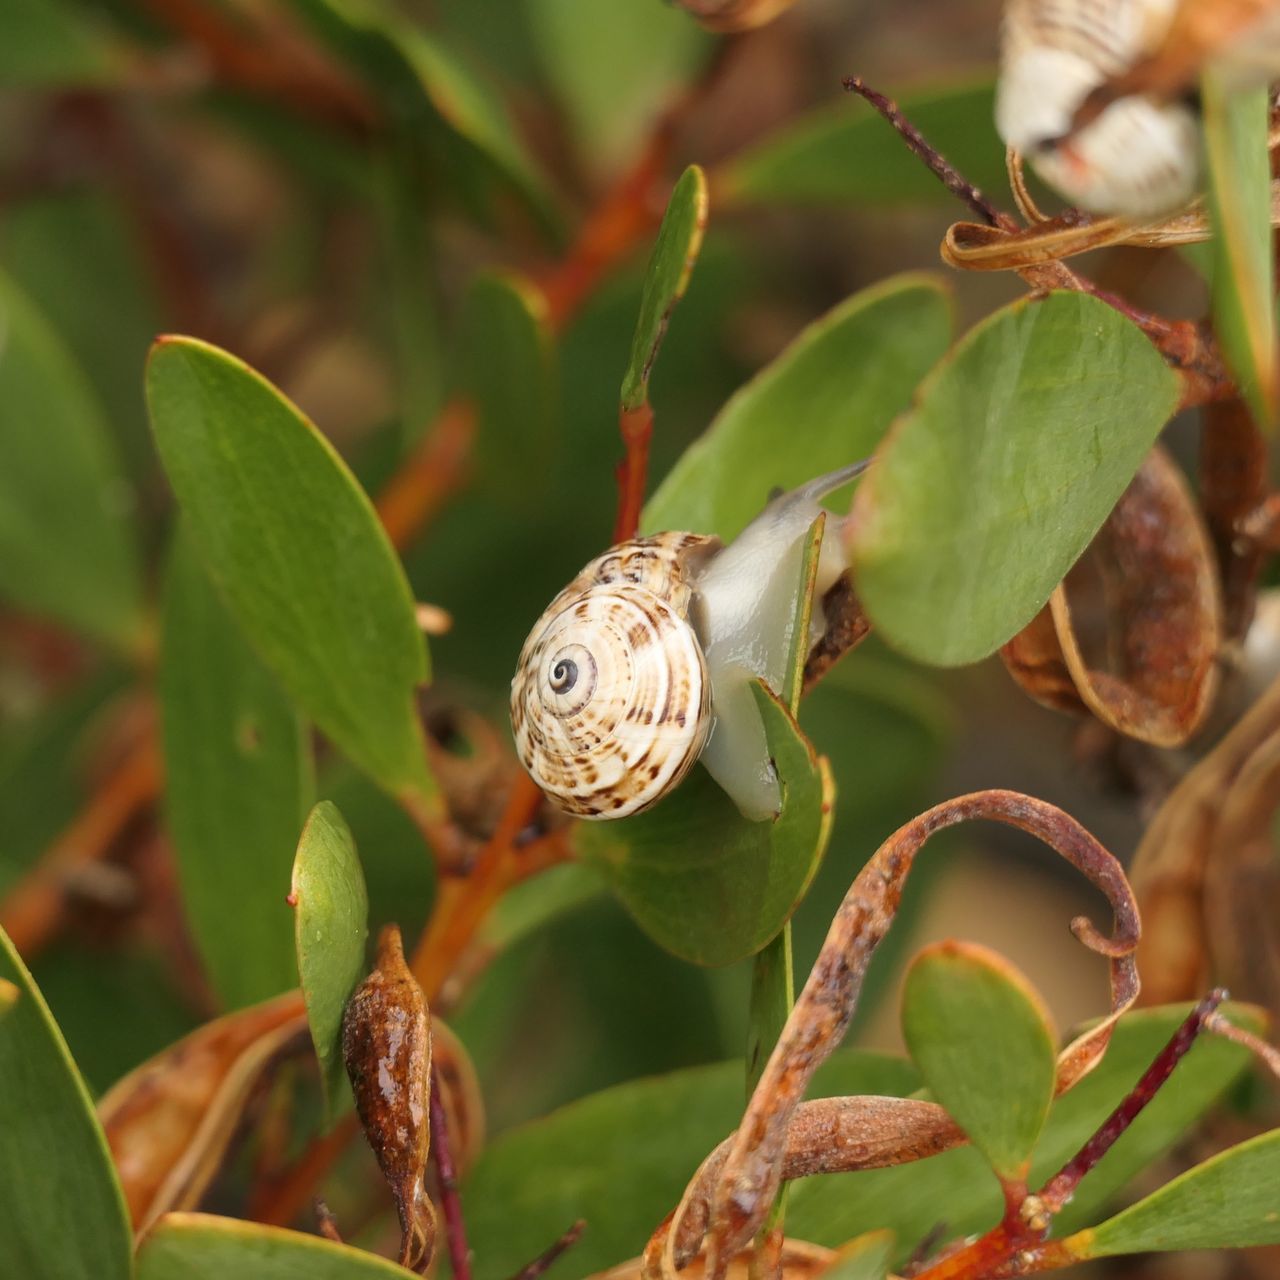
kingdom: Animalia
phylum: Mollusca
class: Gastropoda
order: Stylommatophora
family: Helicidae
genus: Theba
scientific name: Theba pisana
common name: White snail
